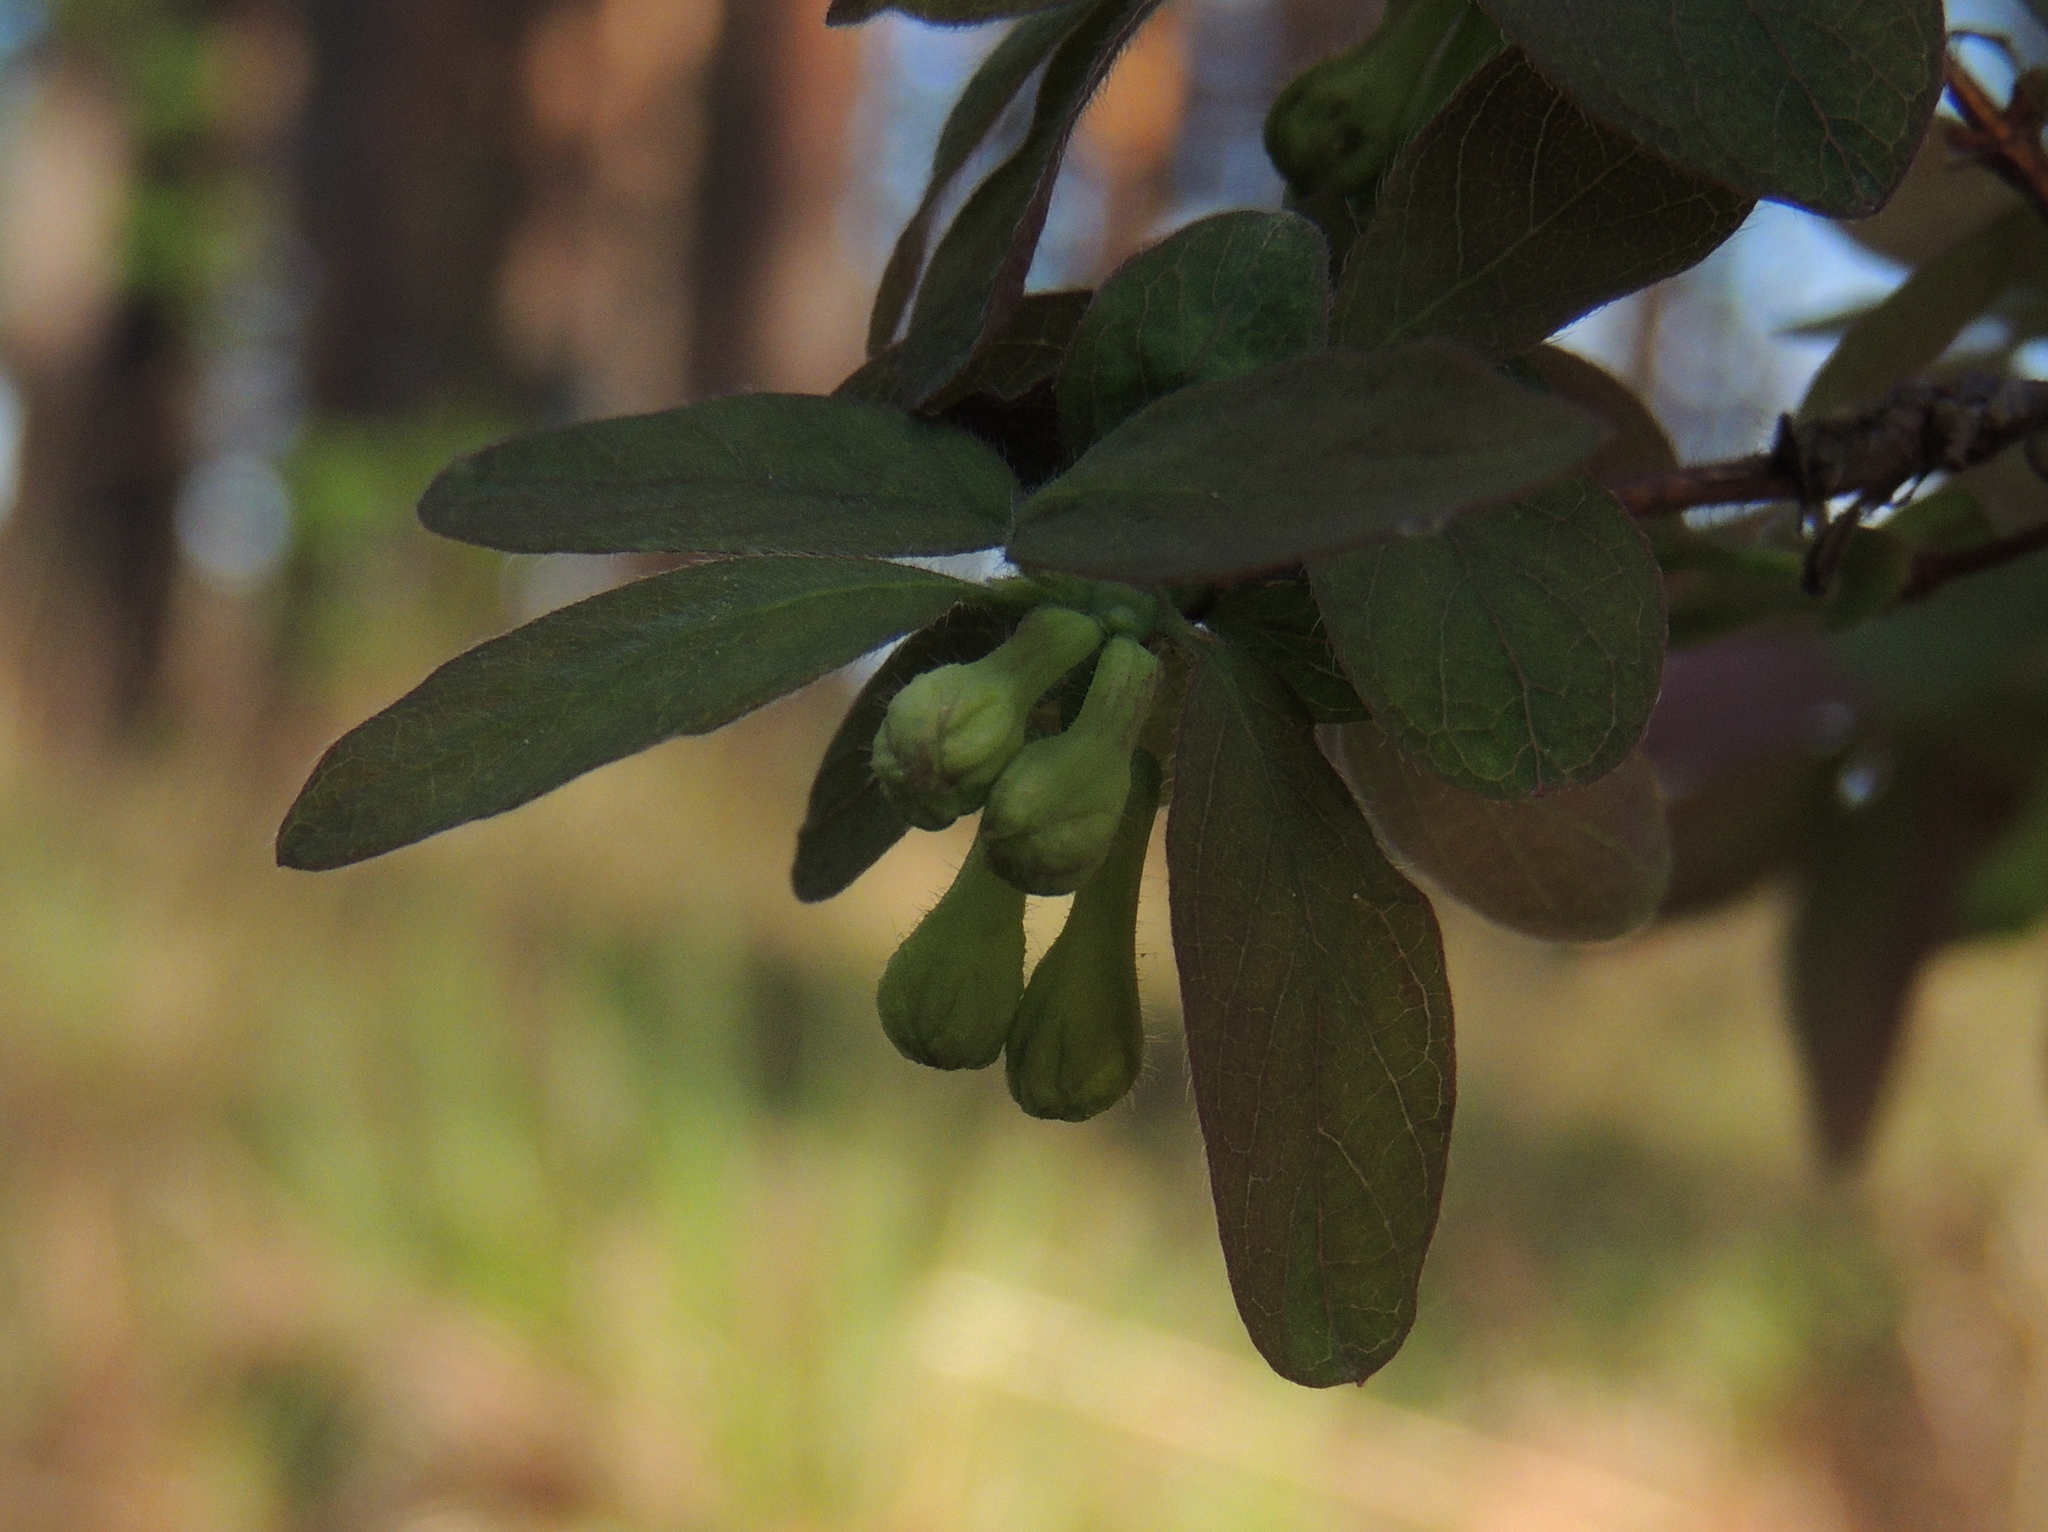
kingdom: Plantae
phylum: Tracheophyta
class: Magnoliopsida
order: Dipsacales
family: Caprifoliaceae
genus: Lonicera
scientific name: Lonicera caerulea
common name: Blue honeysuckle
